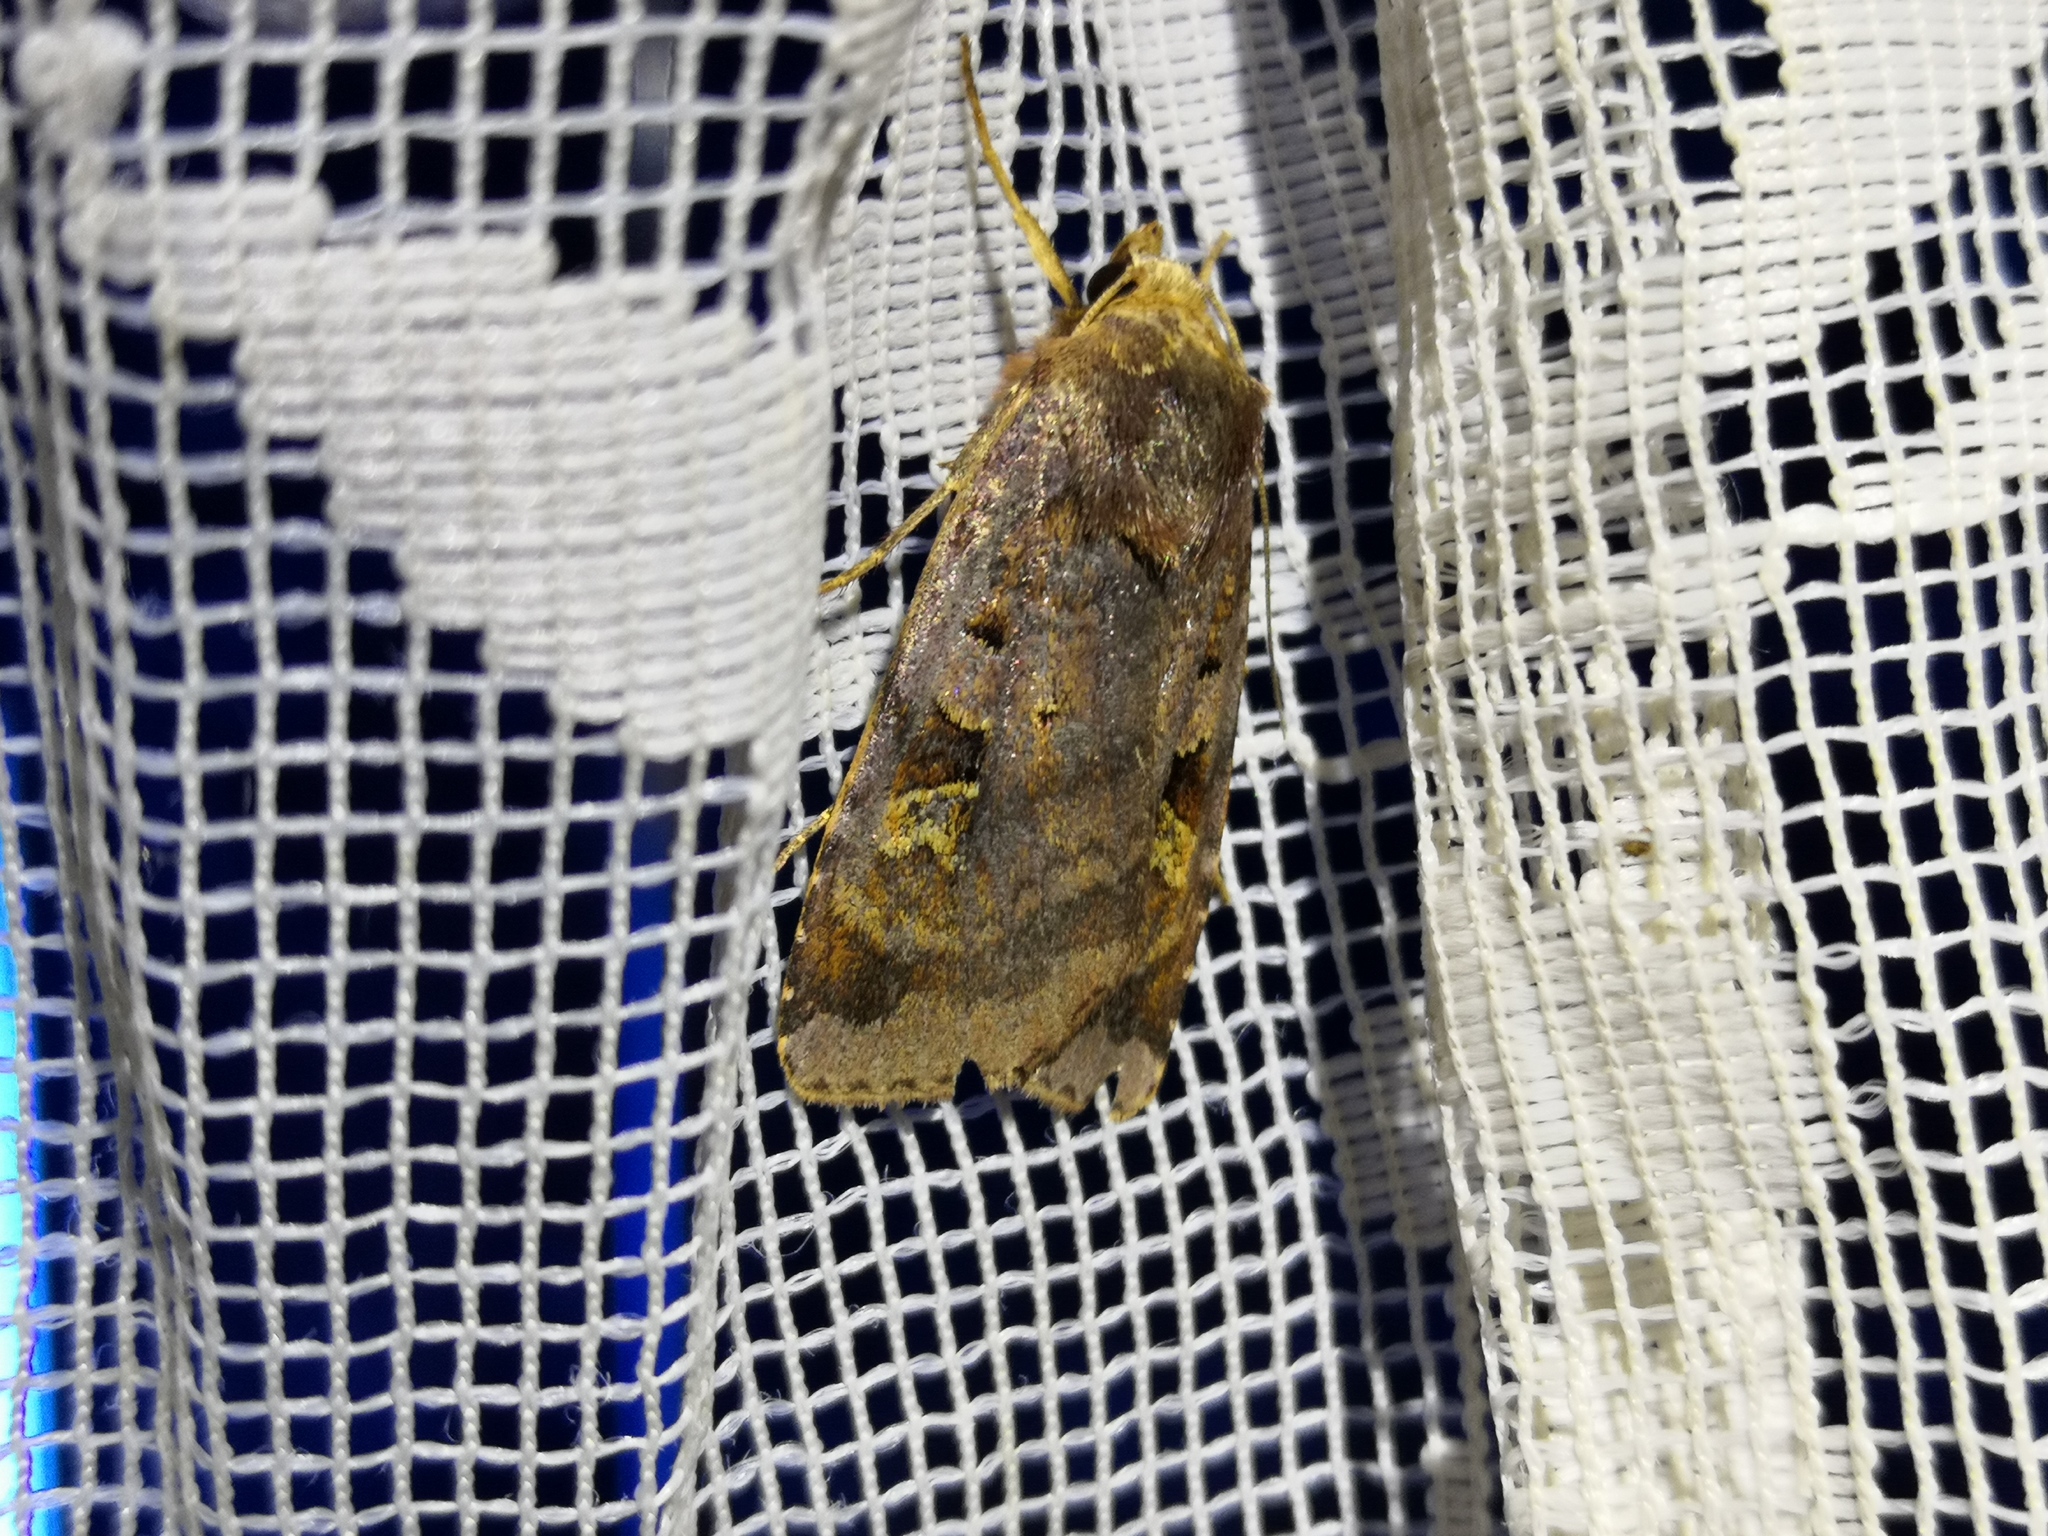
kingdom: Animalia
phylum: Arthropoda
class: Insecta
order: Lepidoptera
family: Noctuidae
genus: Diarsia
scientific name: Diarsia brunnea
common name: Purple clay
